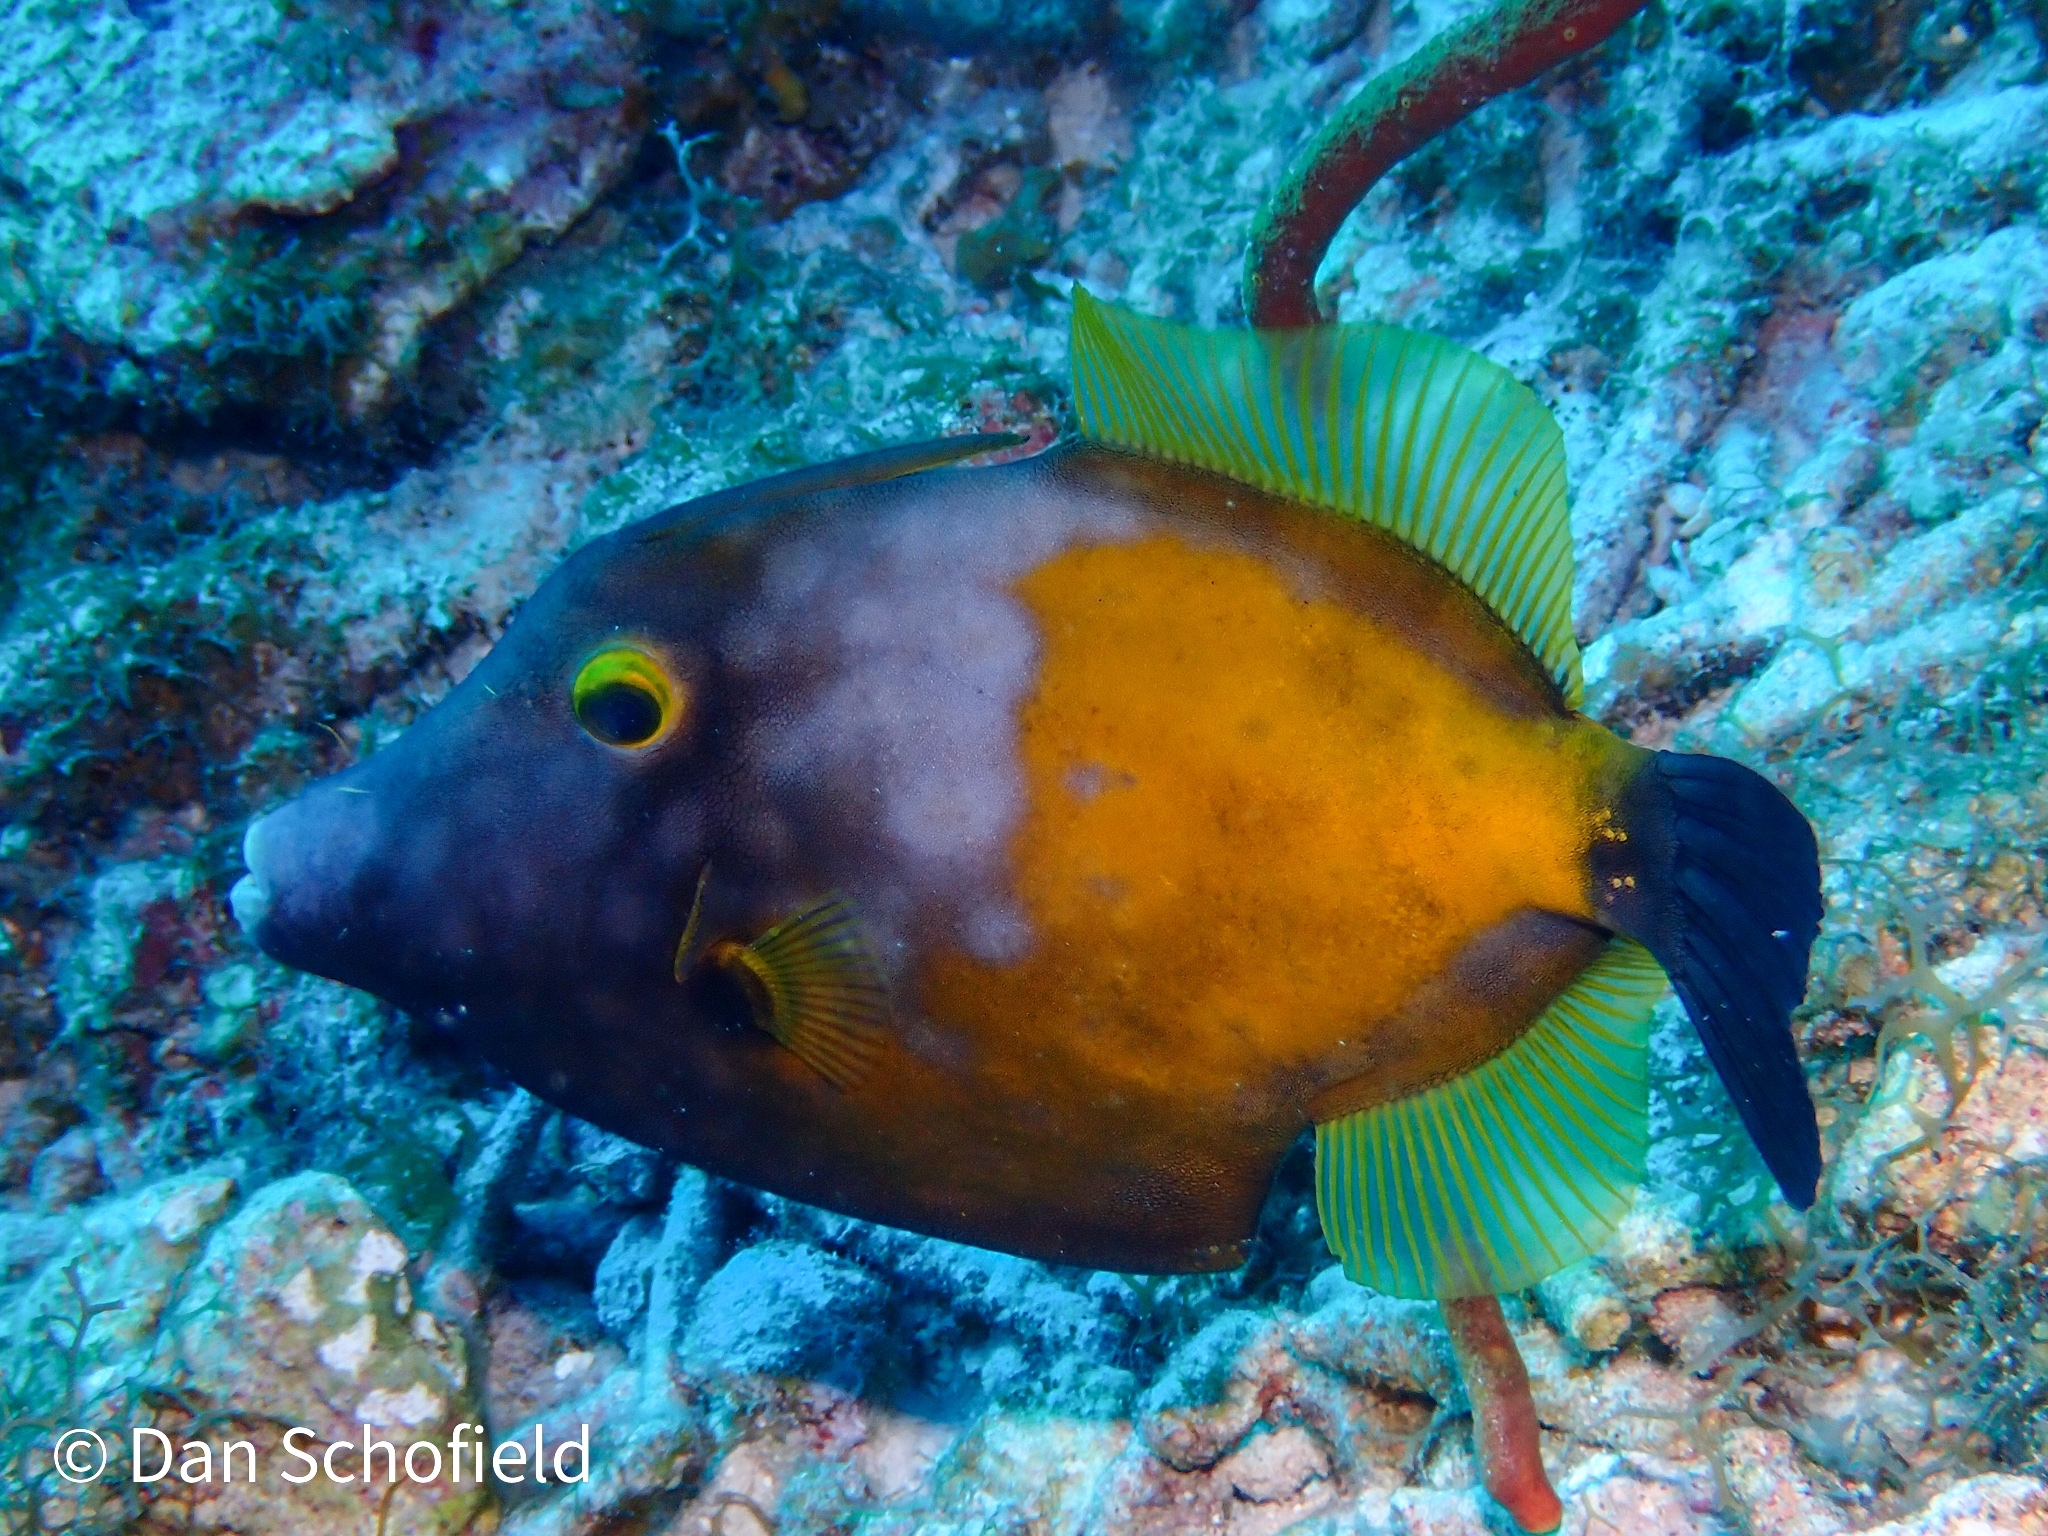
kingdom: Animalia
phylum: Chordata
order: Tetraodontiformes
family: Monacanthidae
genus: Cantherhines
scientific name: Cantherhines macrocerus
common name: Whitespotted filefish
